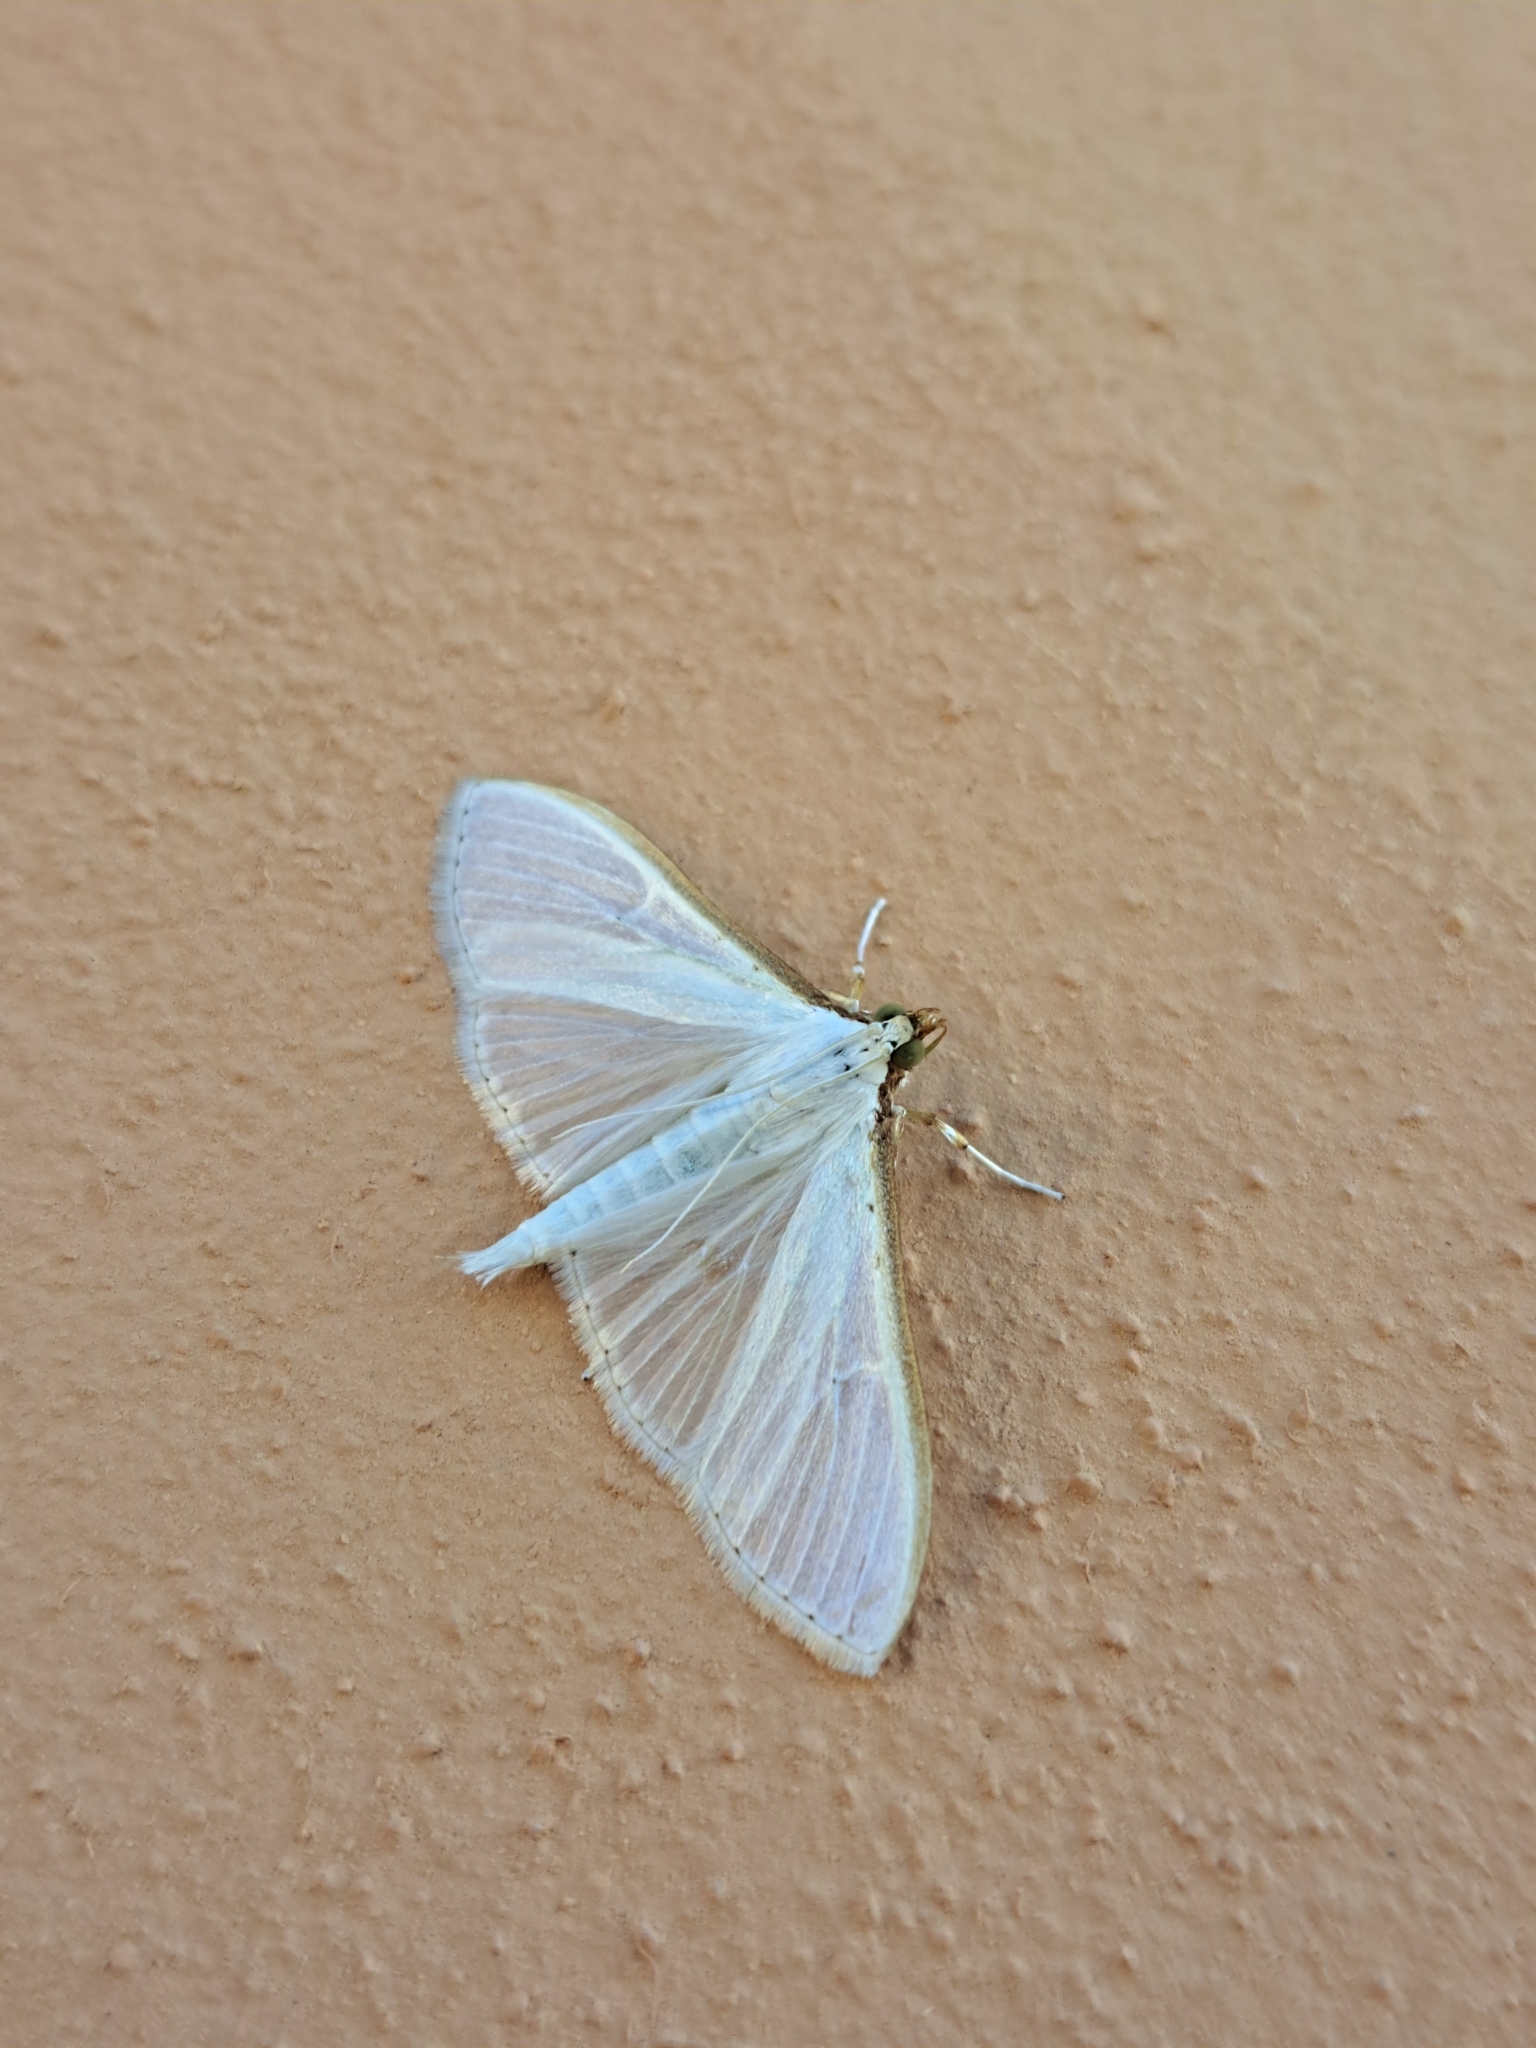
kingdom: Animalia
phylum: Arthropoda
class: Insecta
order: Lepidoptera
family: Crambidae
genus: Palpita
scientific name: Palpita vitrealis
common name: Olive-tree pearl
